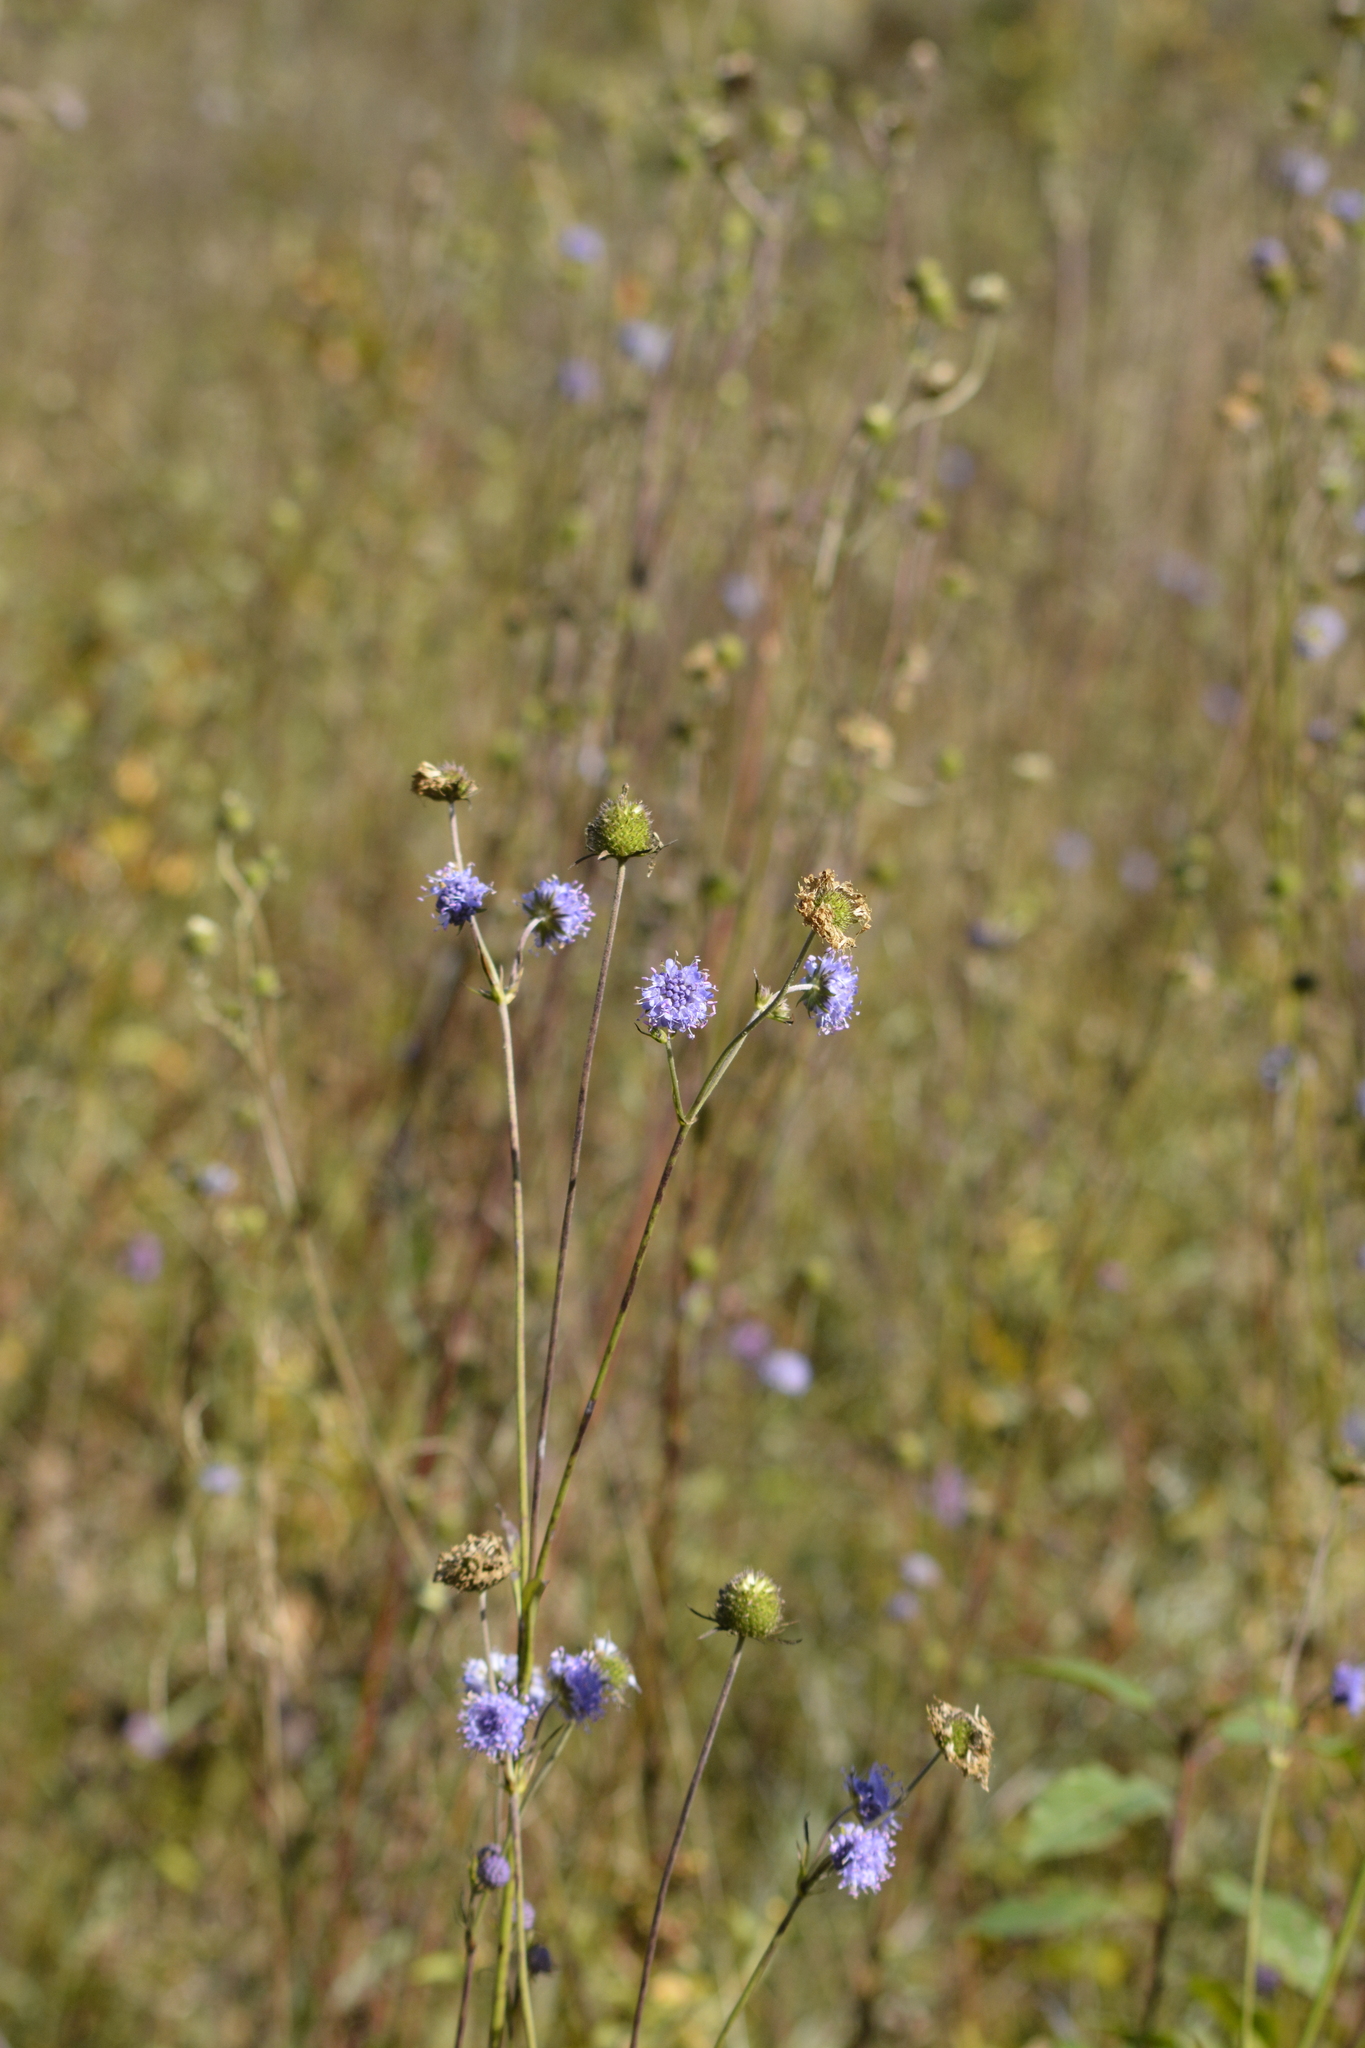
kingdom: Plantae
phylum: Tracheophyta
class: Magnoliopsida
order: Dipsacales
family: Caprifoliaceae
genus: Succisa
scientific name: Succisa pratensis
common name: Devil's-bit
